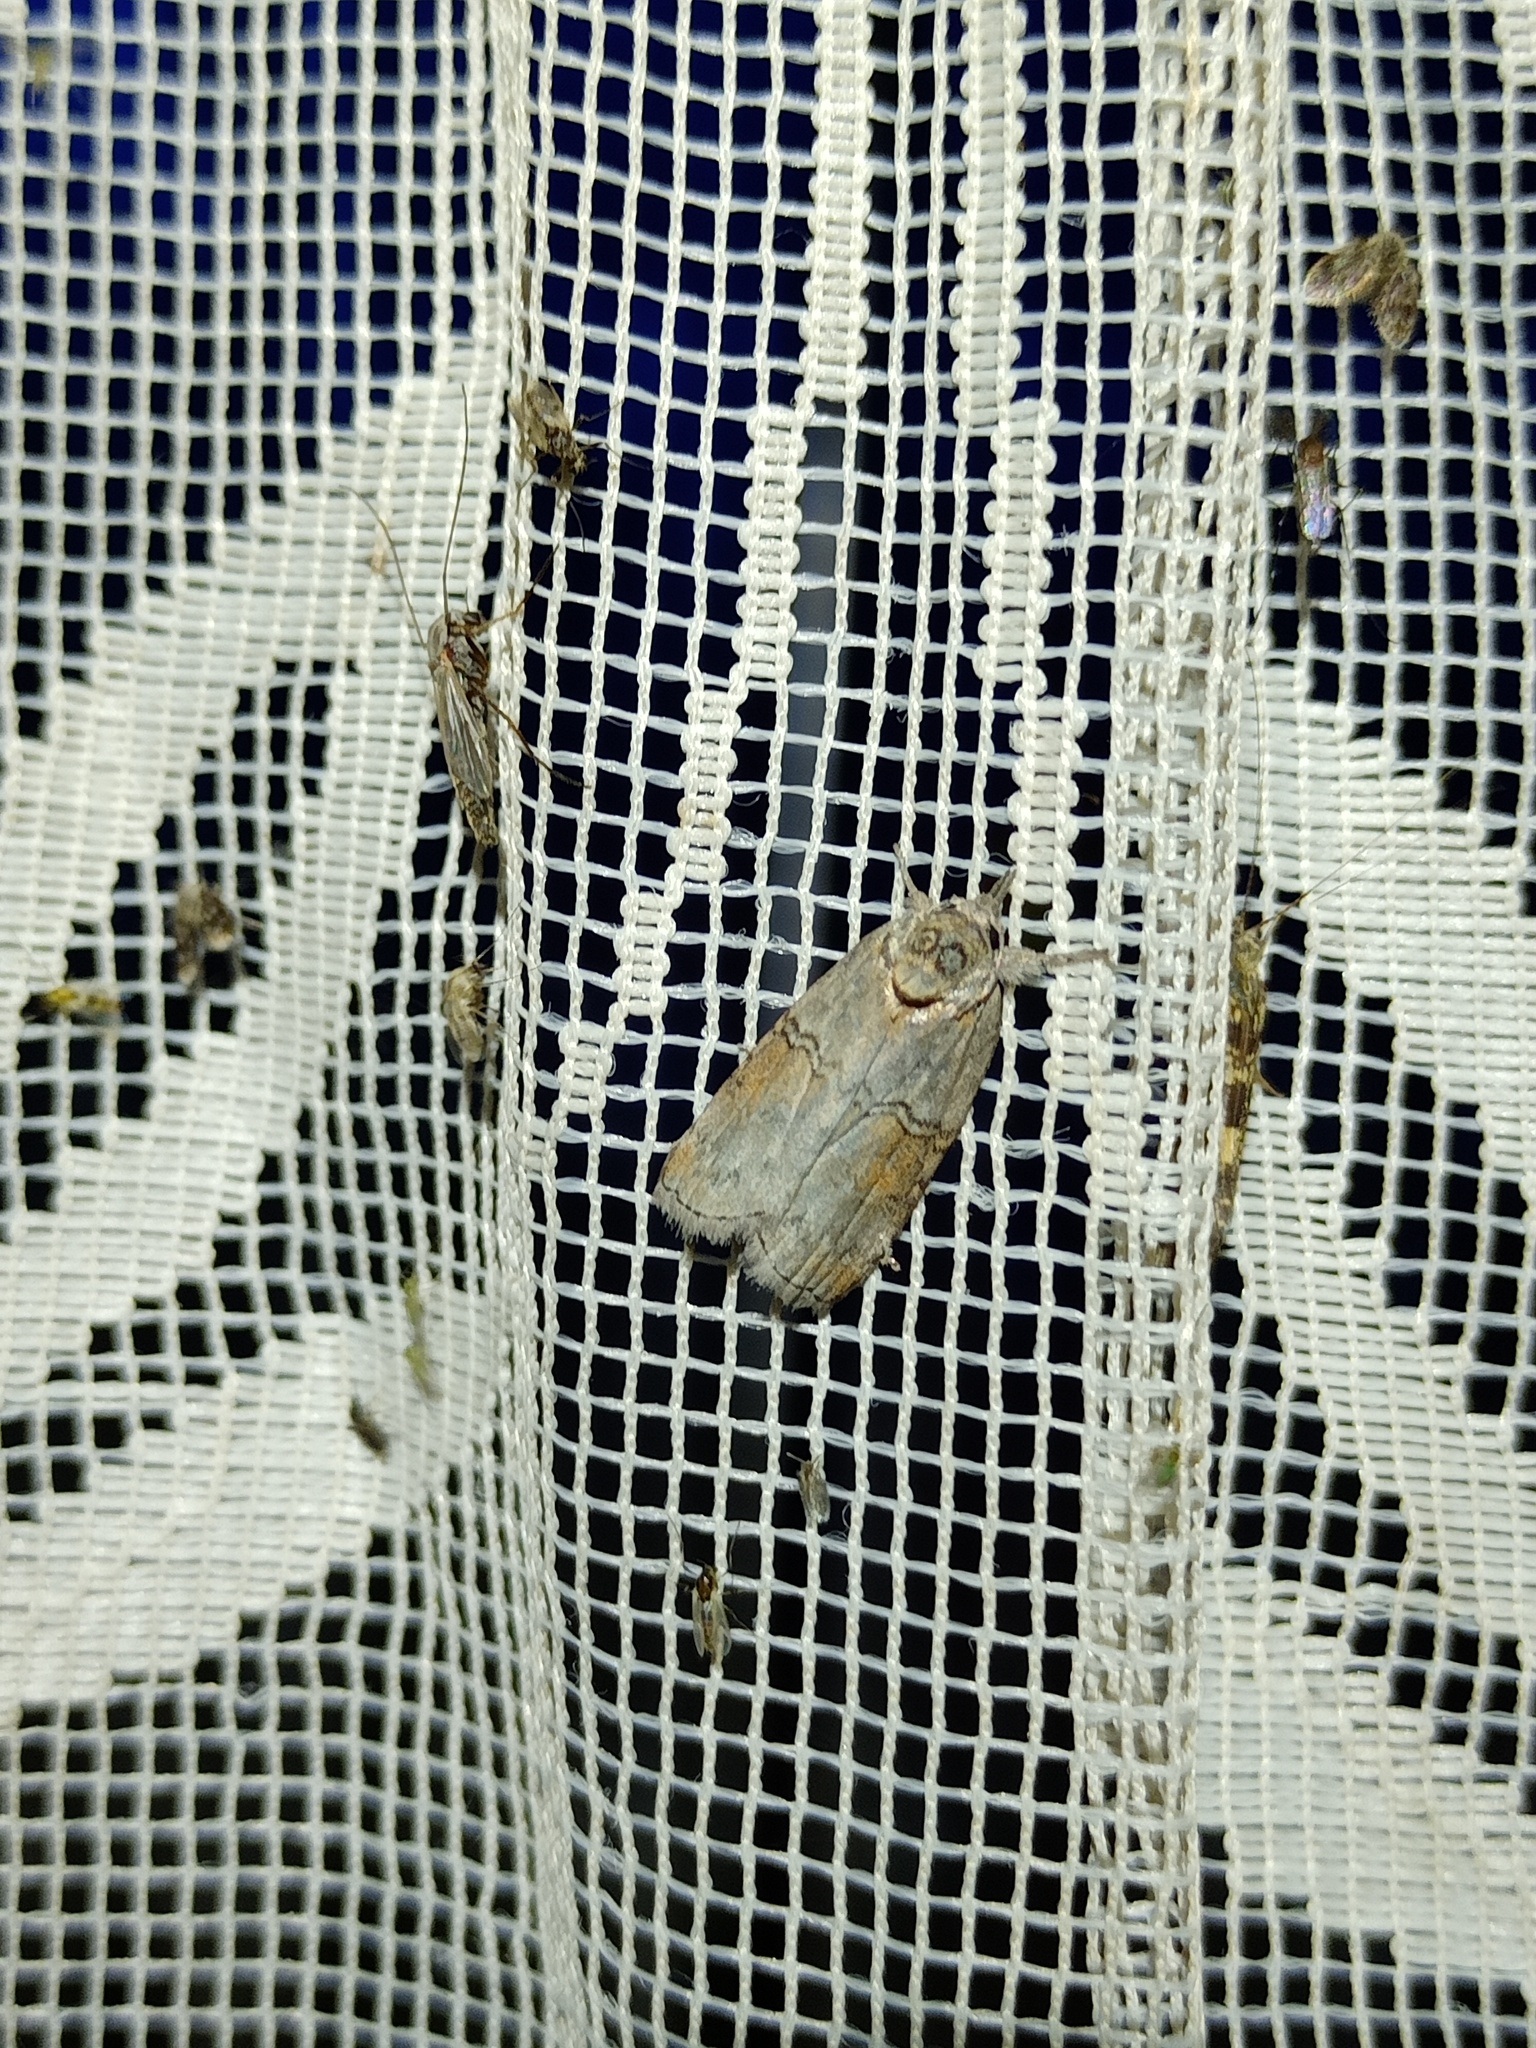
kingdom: Animalia
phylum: Arthropoda
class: Insecta
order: Lepidoptera
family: Nolidae
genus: Nycteola
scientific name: Nycteola asiatica
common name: Eastern nycteoline
